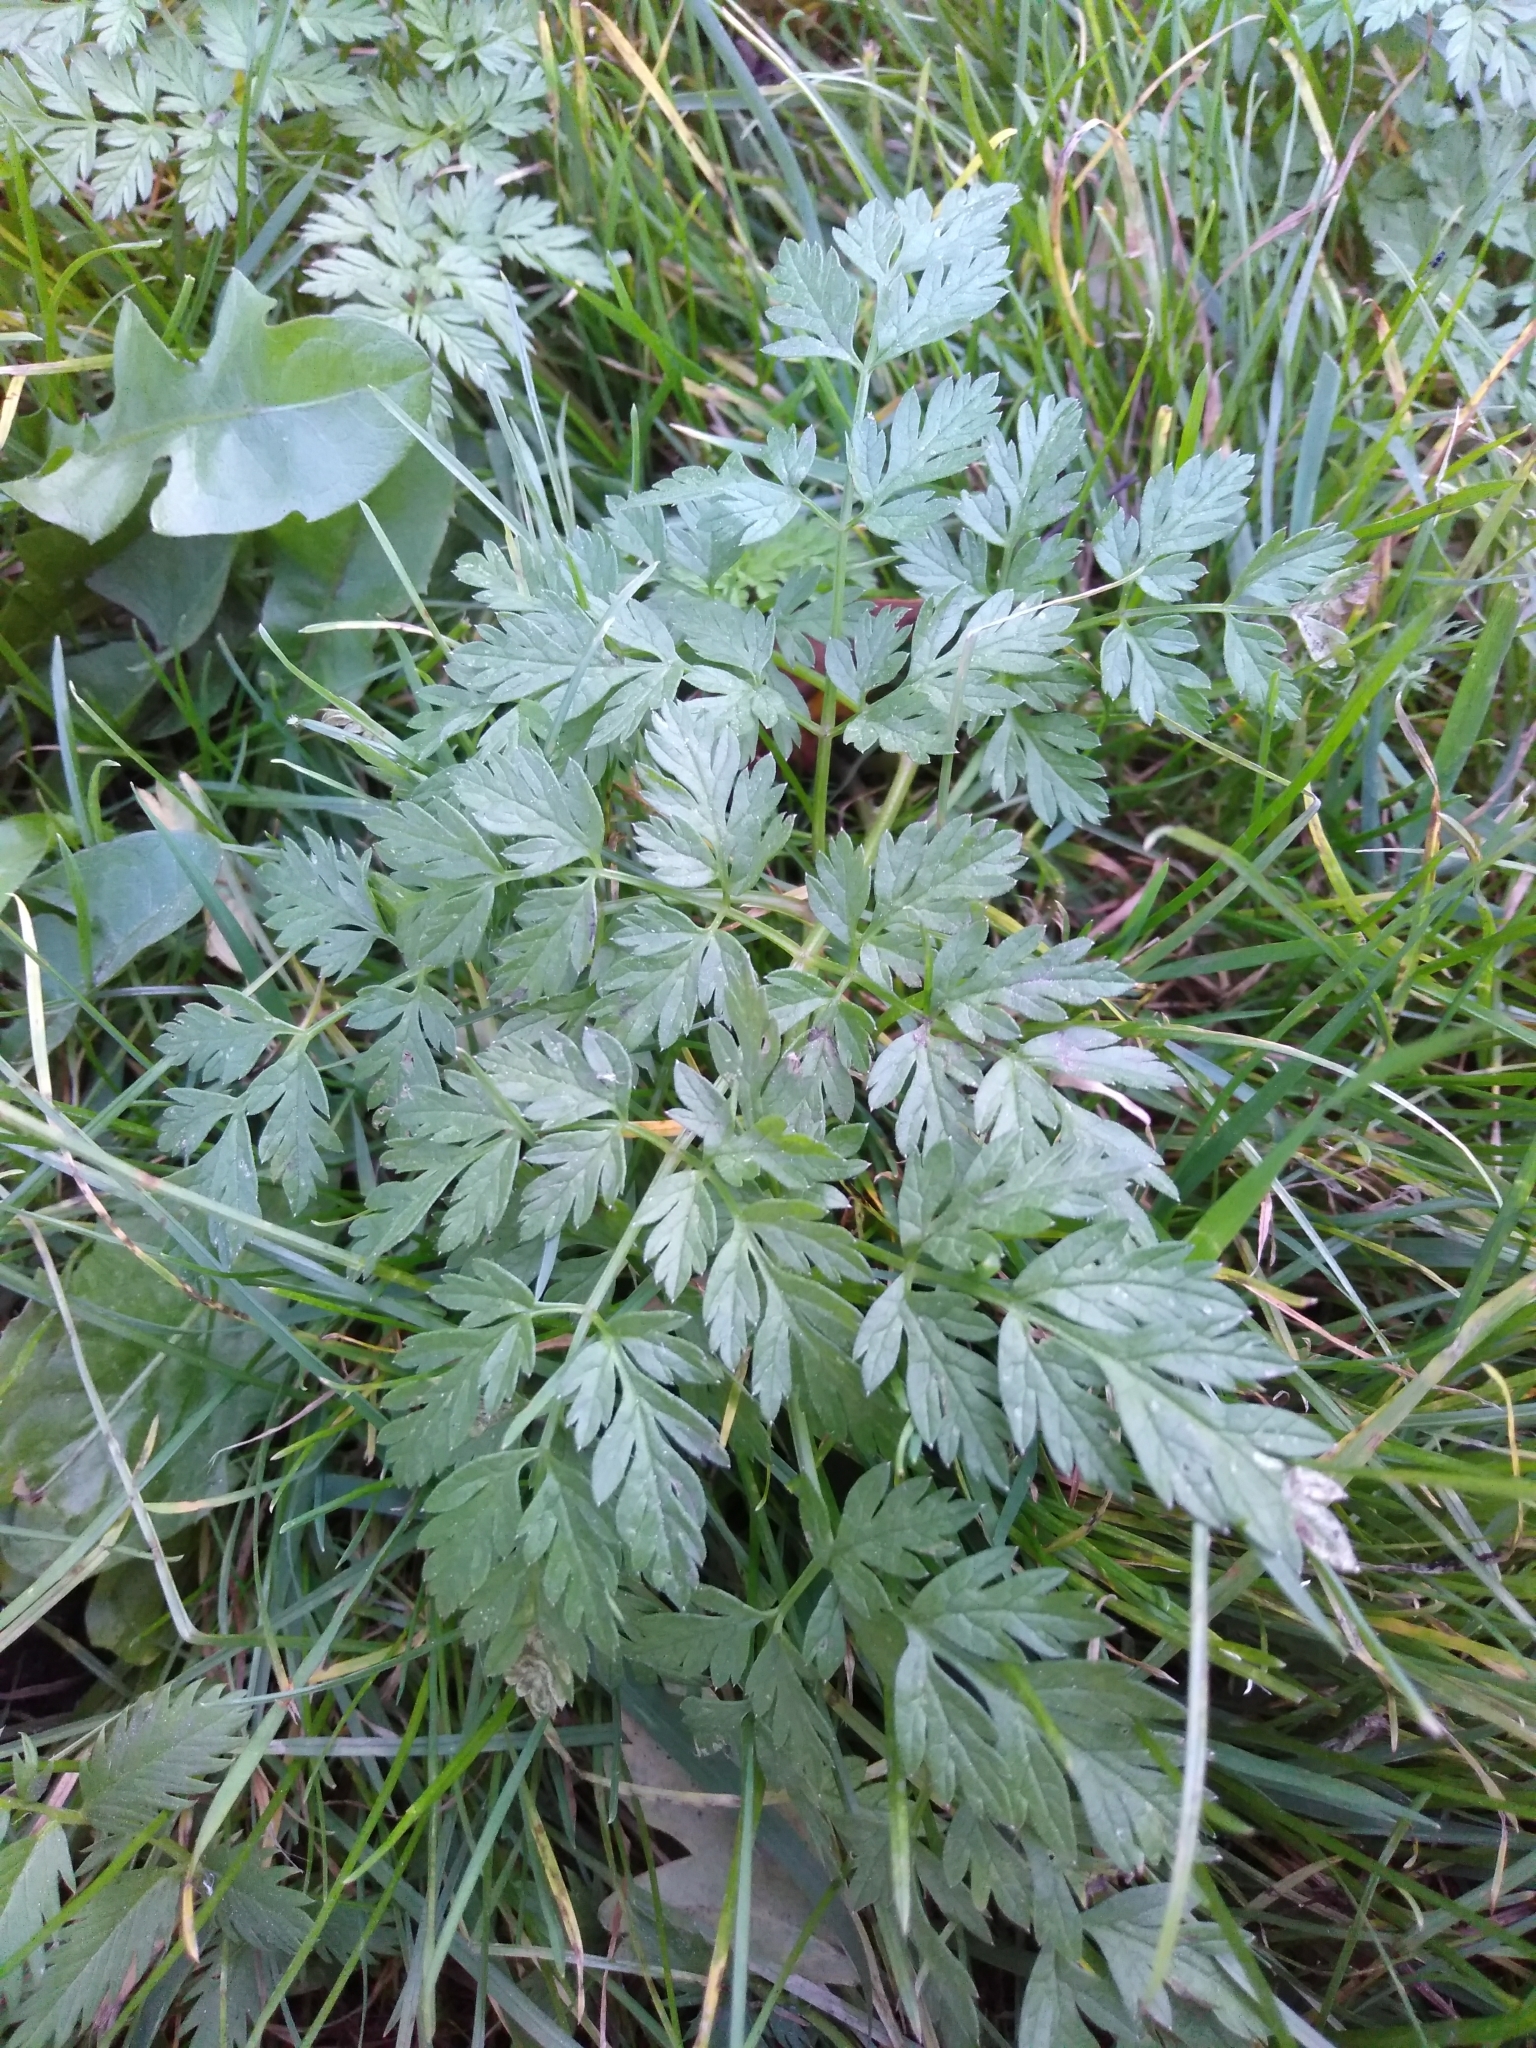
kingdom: Plantae
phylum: Tracheophyta
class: Magnoliopsida
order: Apiales
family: Apiaceae
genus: Anthriscus
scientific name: Anthriscus sylvestris
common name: Cow parsley
